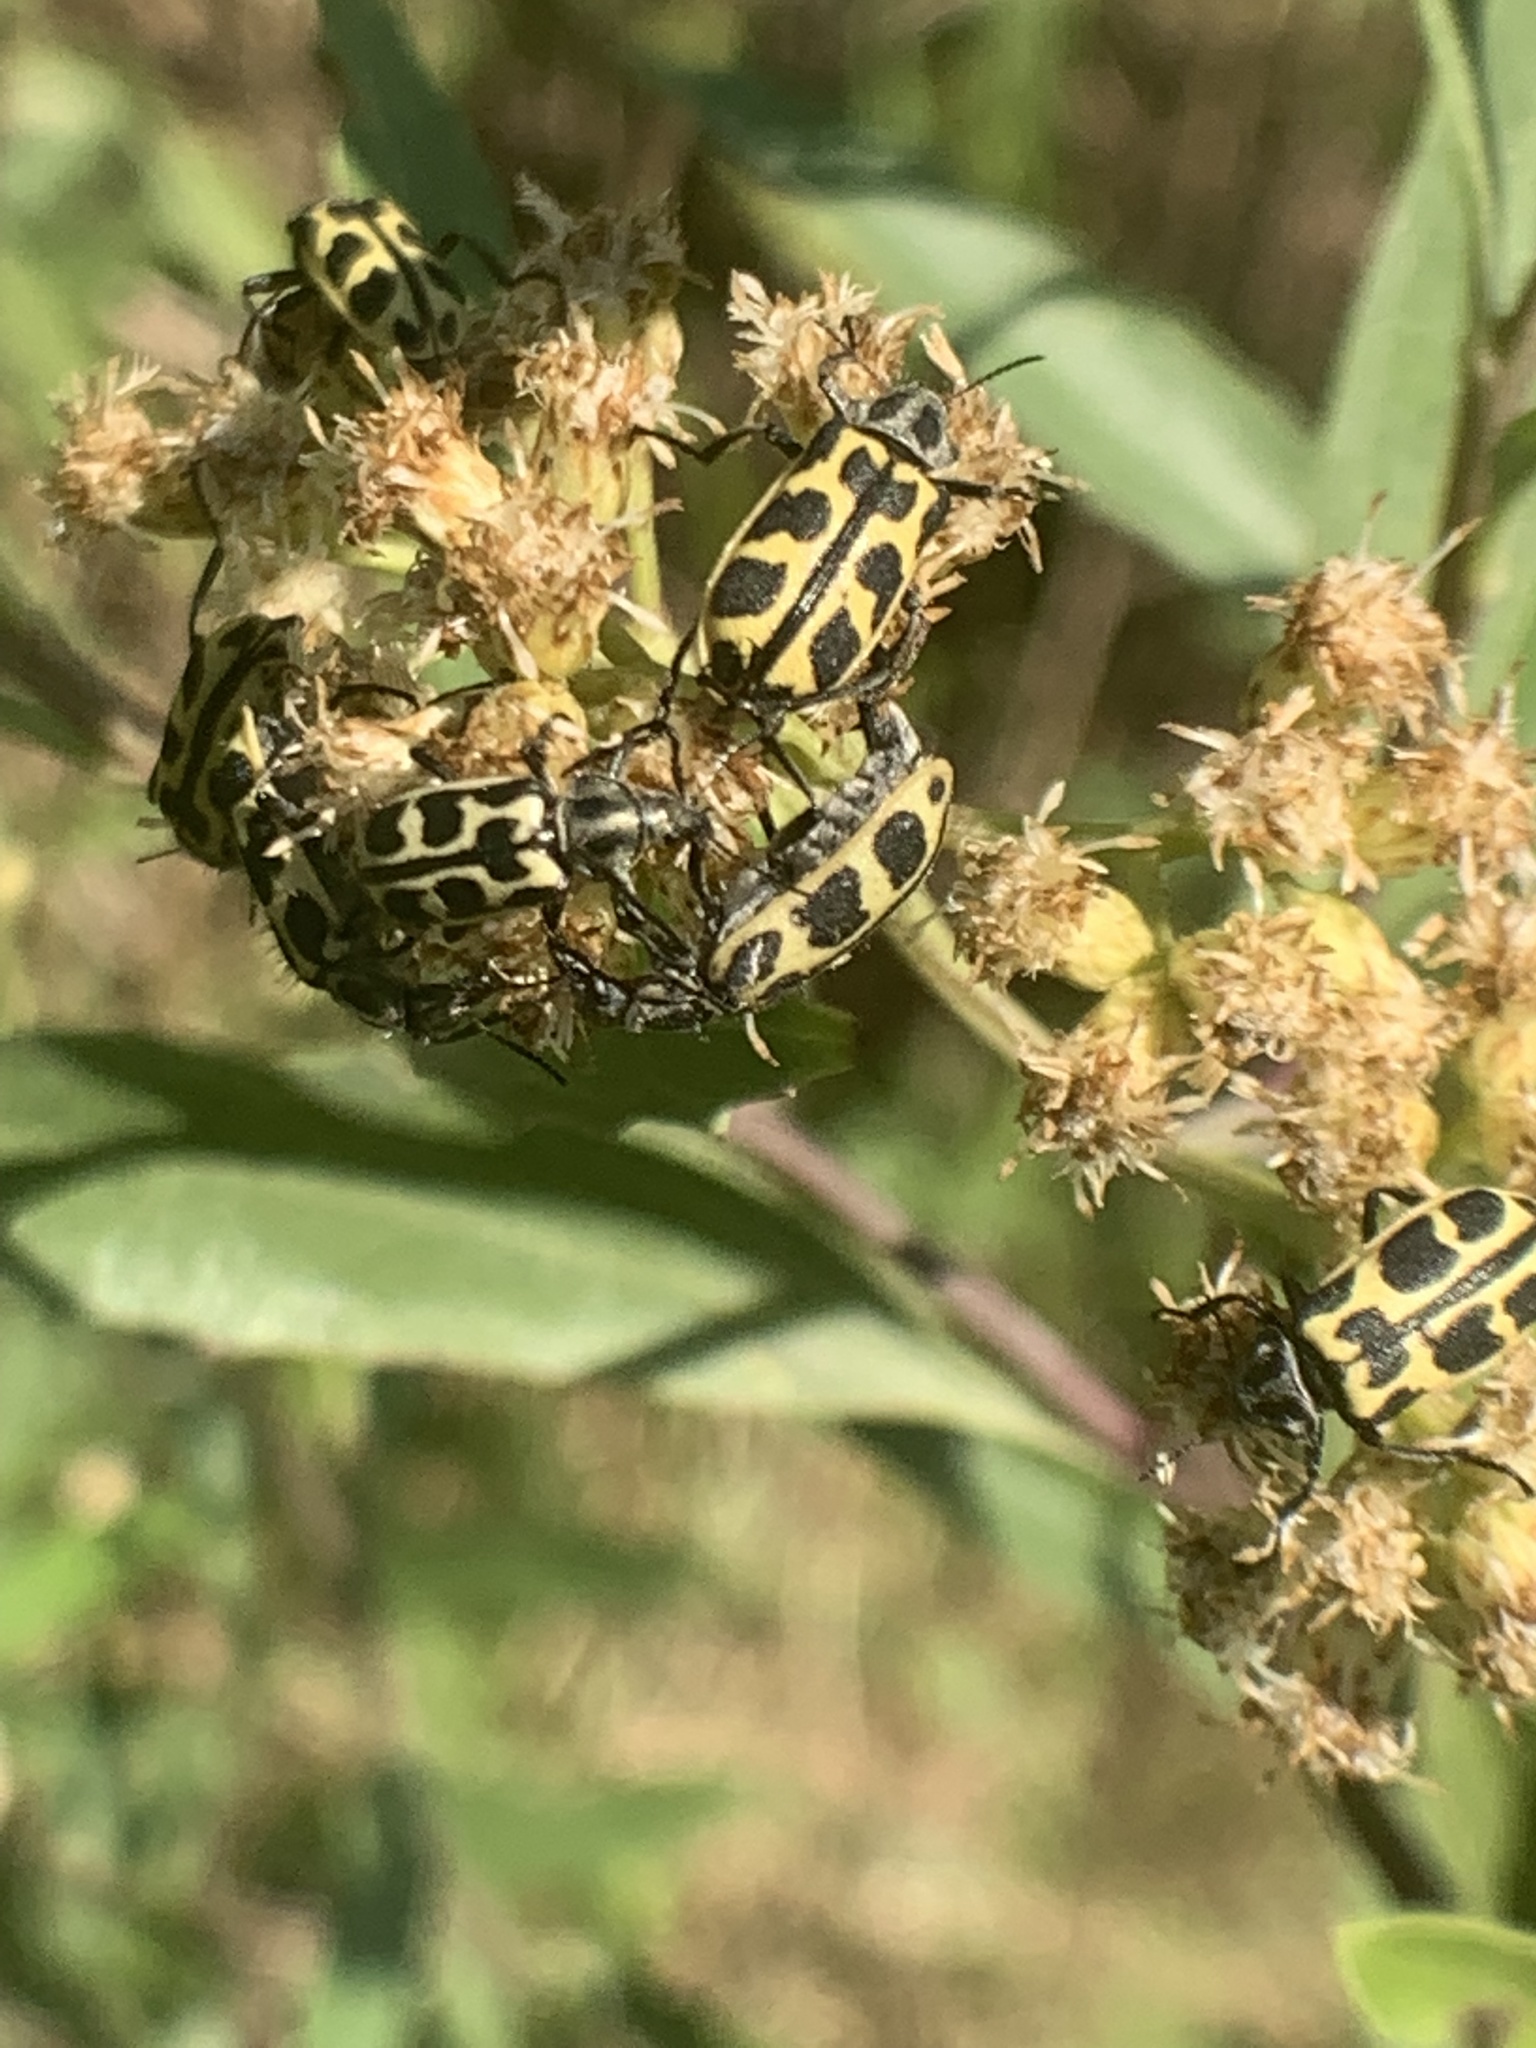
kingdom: Animalia
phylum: Arthropoda
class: Insecta
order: Coleoptera
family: Melyridae
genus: Astylus
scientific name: Astylus atromaculatus
